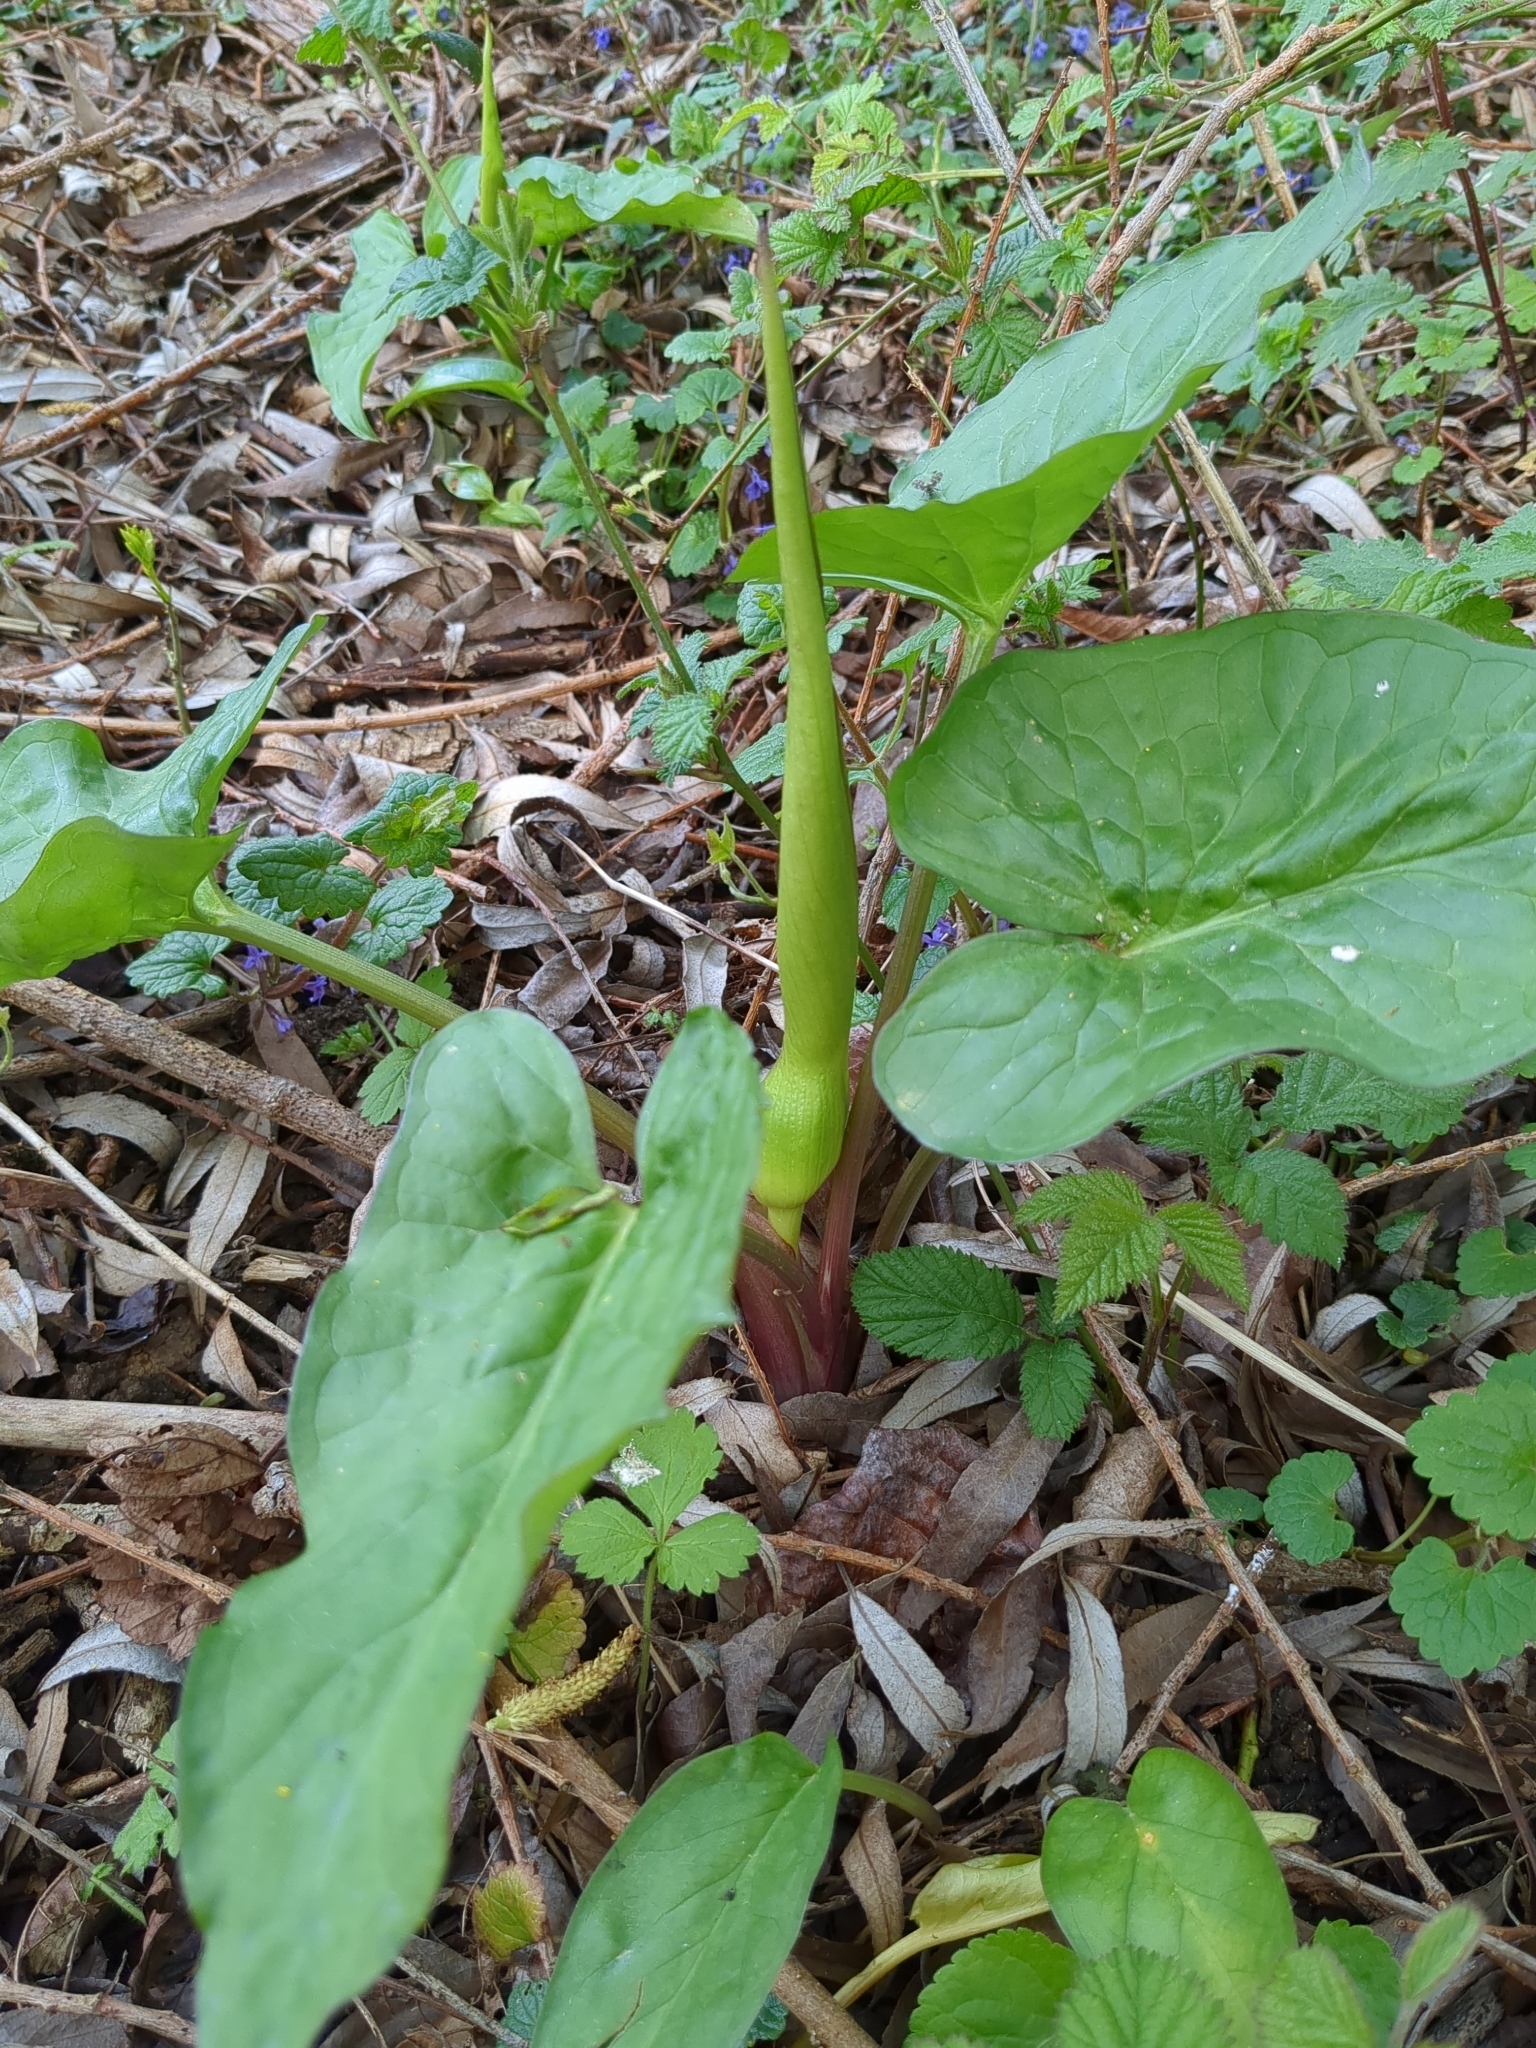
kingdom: Plantae
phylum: Tracheophyta
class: Liliopsida
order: Alismatales
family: Araceae
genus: Arum
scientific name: Arum maculatum
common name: Lords-and-ladies
